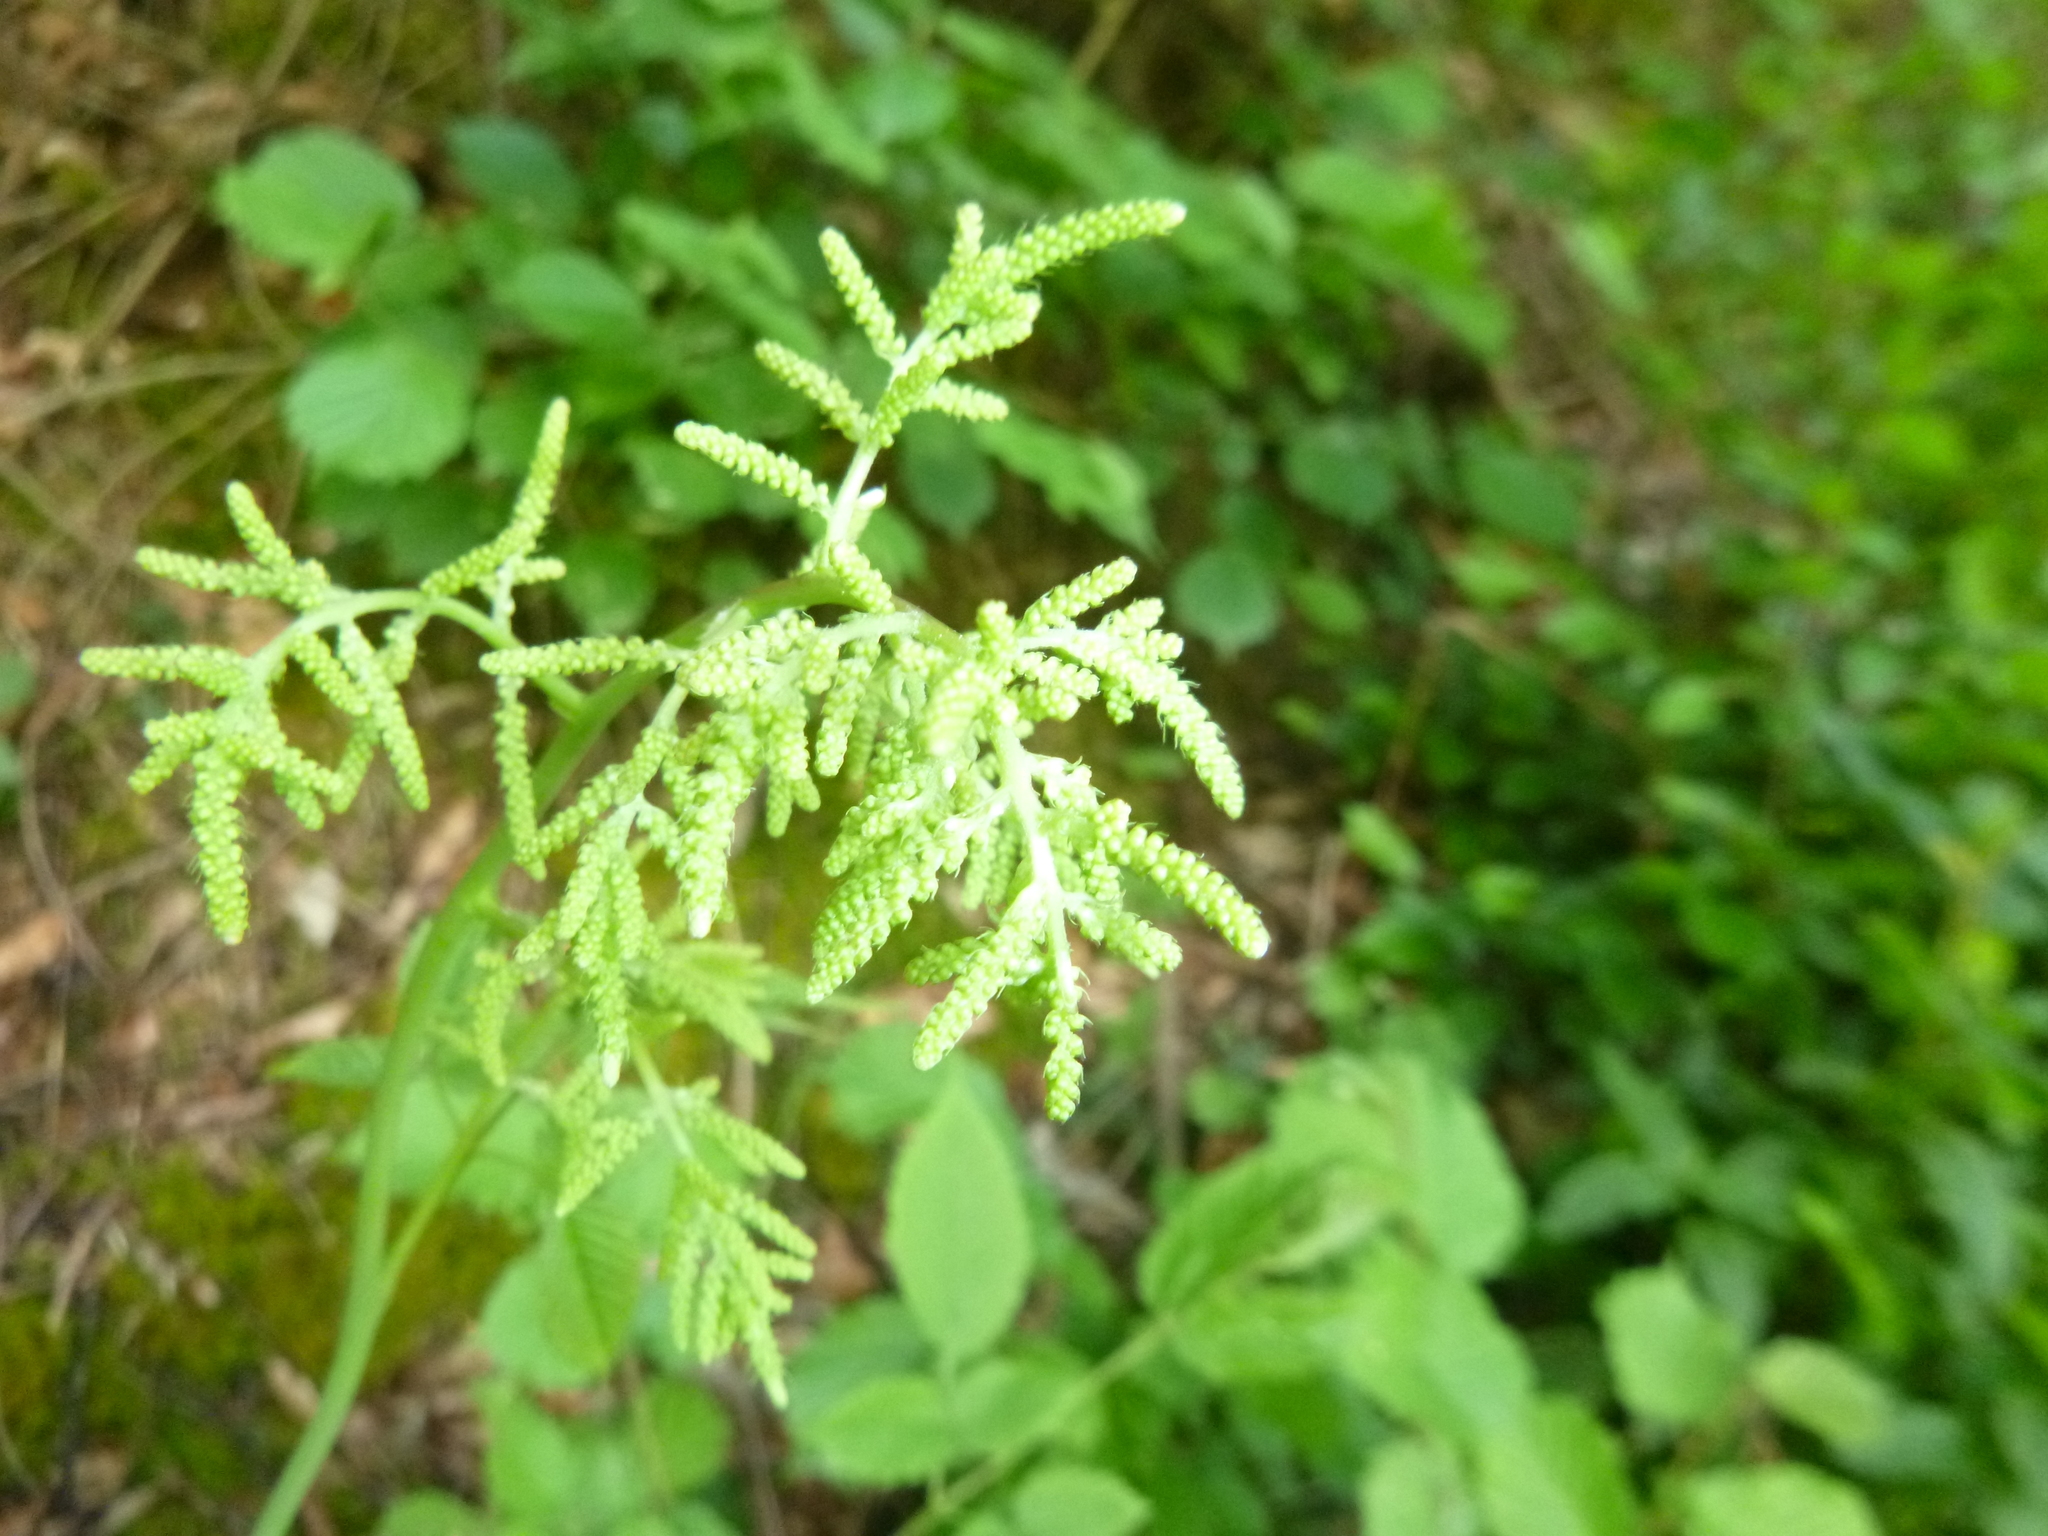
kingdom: Plantae
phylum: Tracheophyta
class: Magnoliopsida
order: Rosales
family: Rosaceae
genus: Aruncus
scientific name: Aruncus dioicus
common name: Buck's-beard
